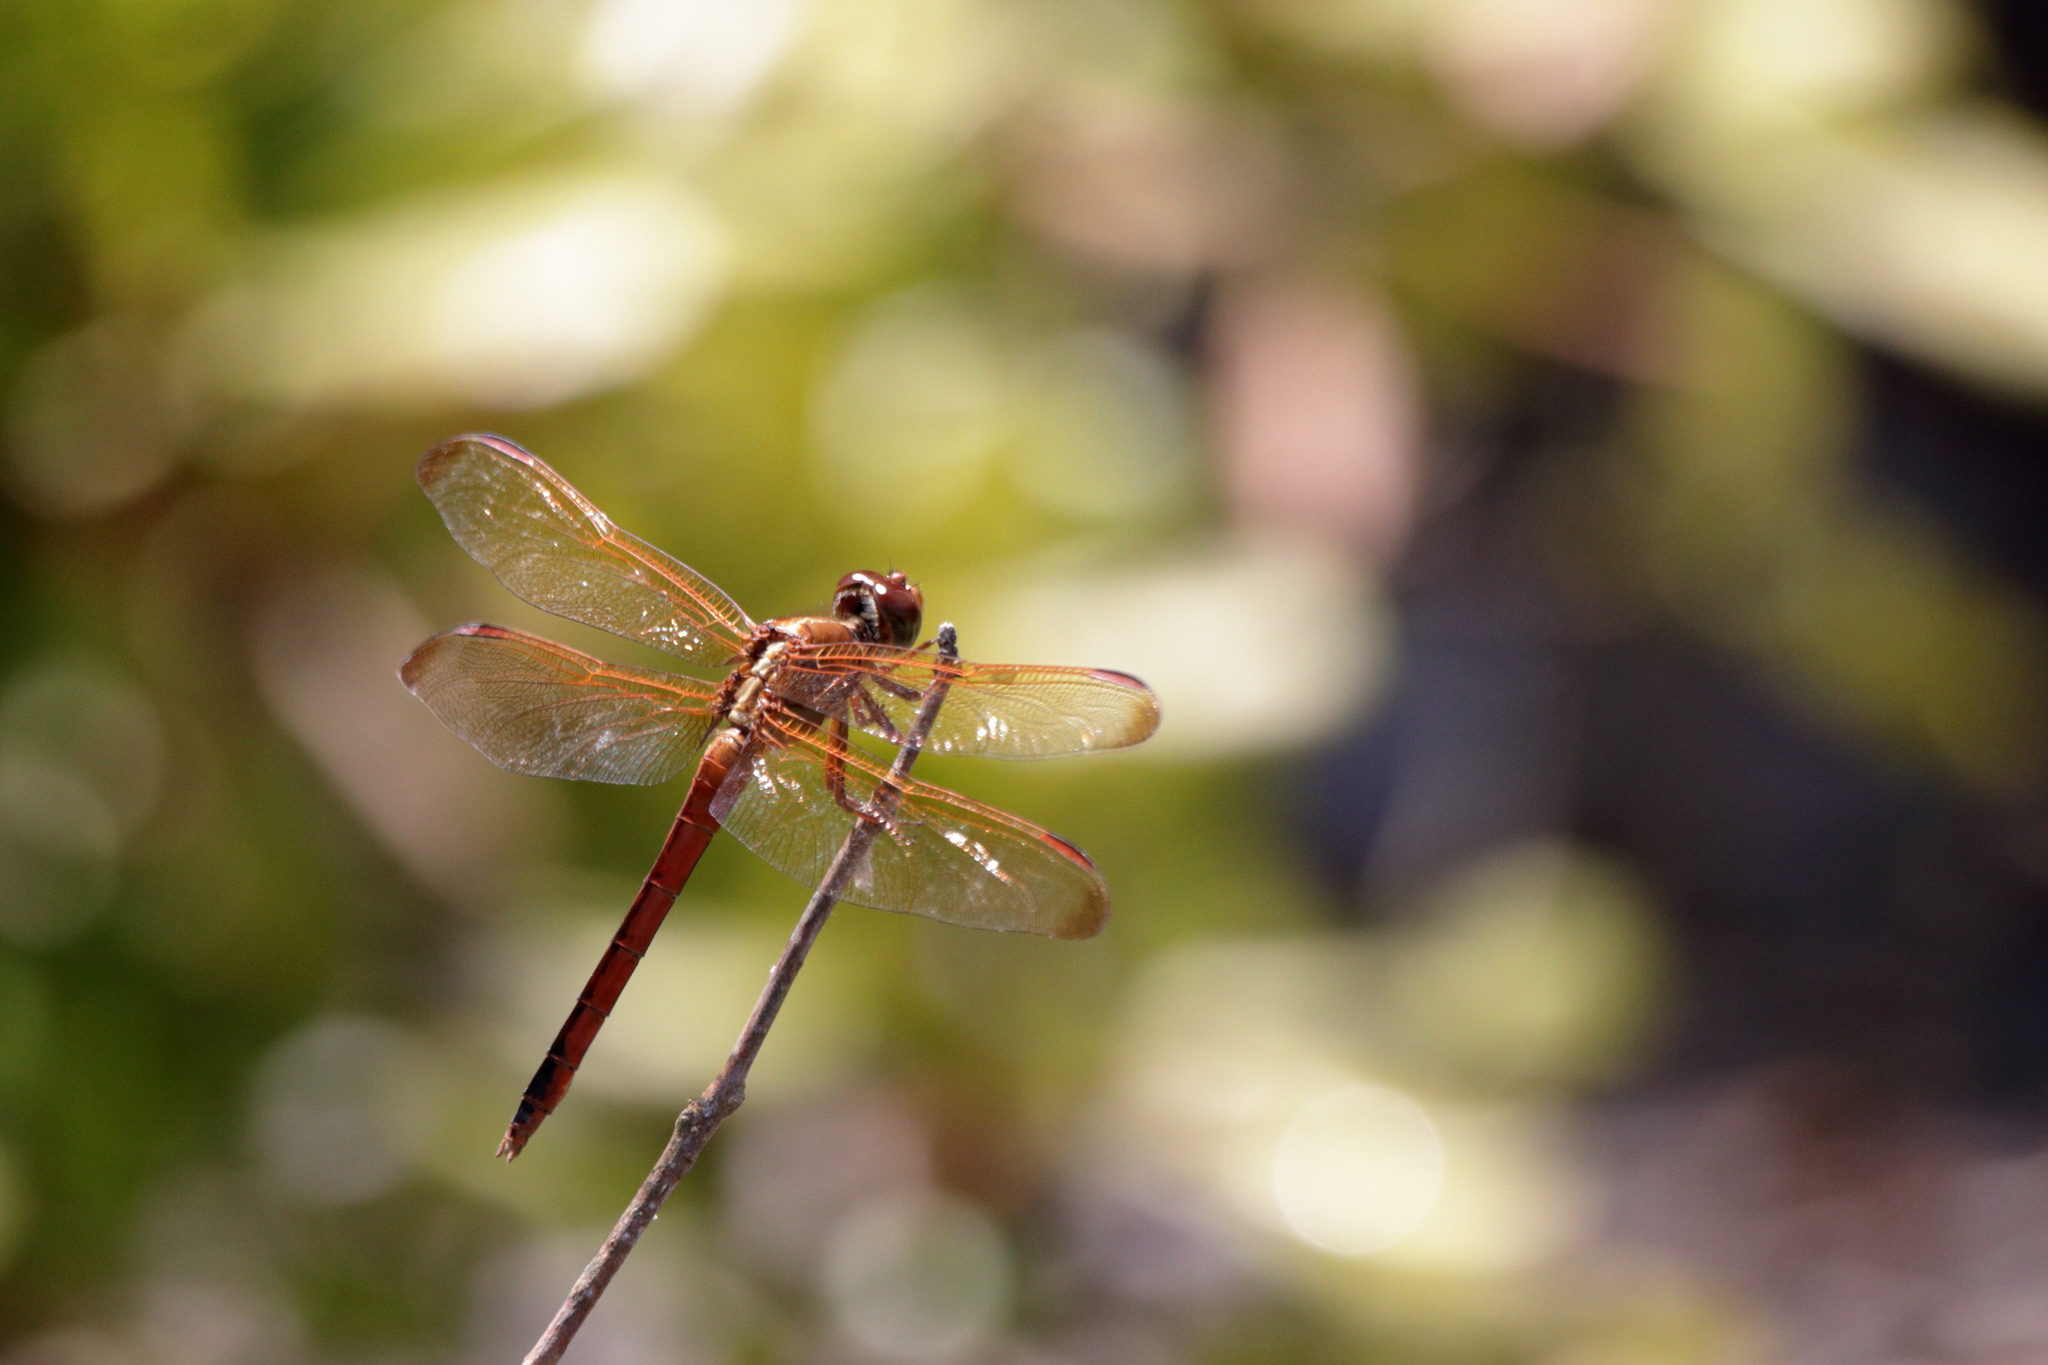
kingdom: Animalia
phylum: Arthropoda
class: Insecta
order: Odonata
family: Libellulidae
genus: Libellula
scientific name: Libellula needhami
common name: Needham's skimmer
